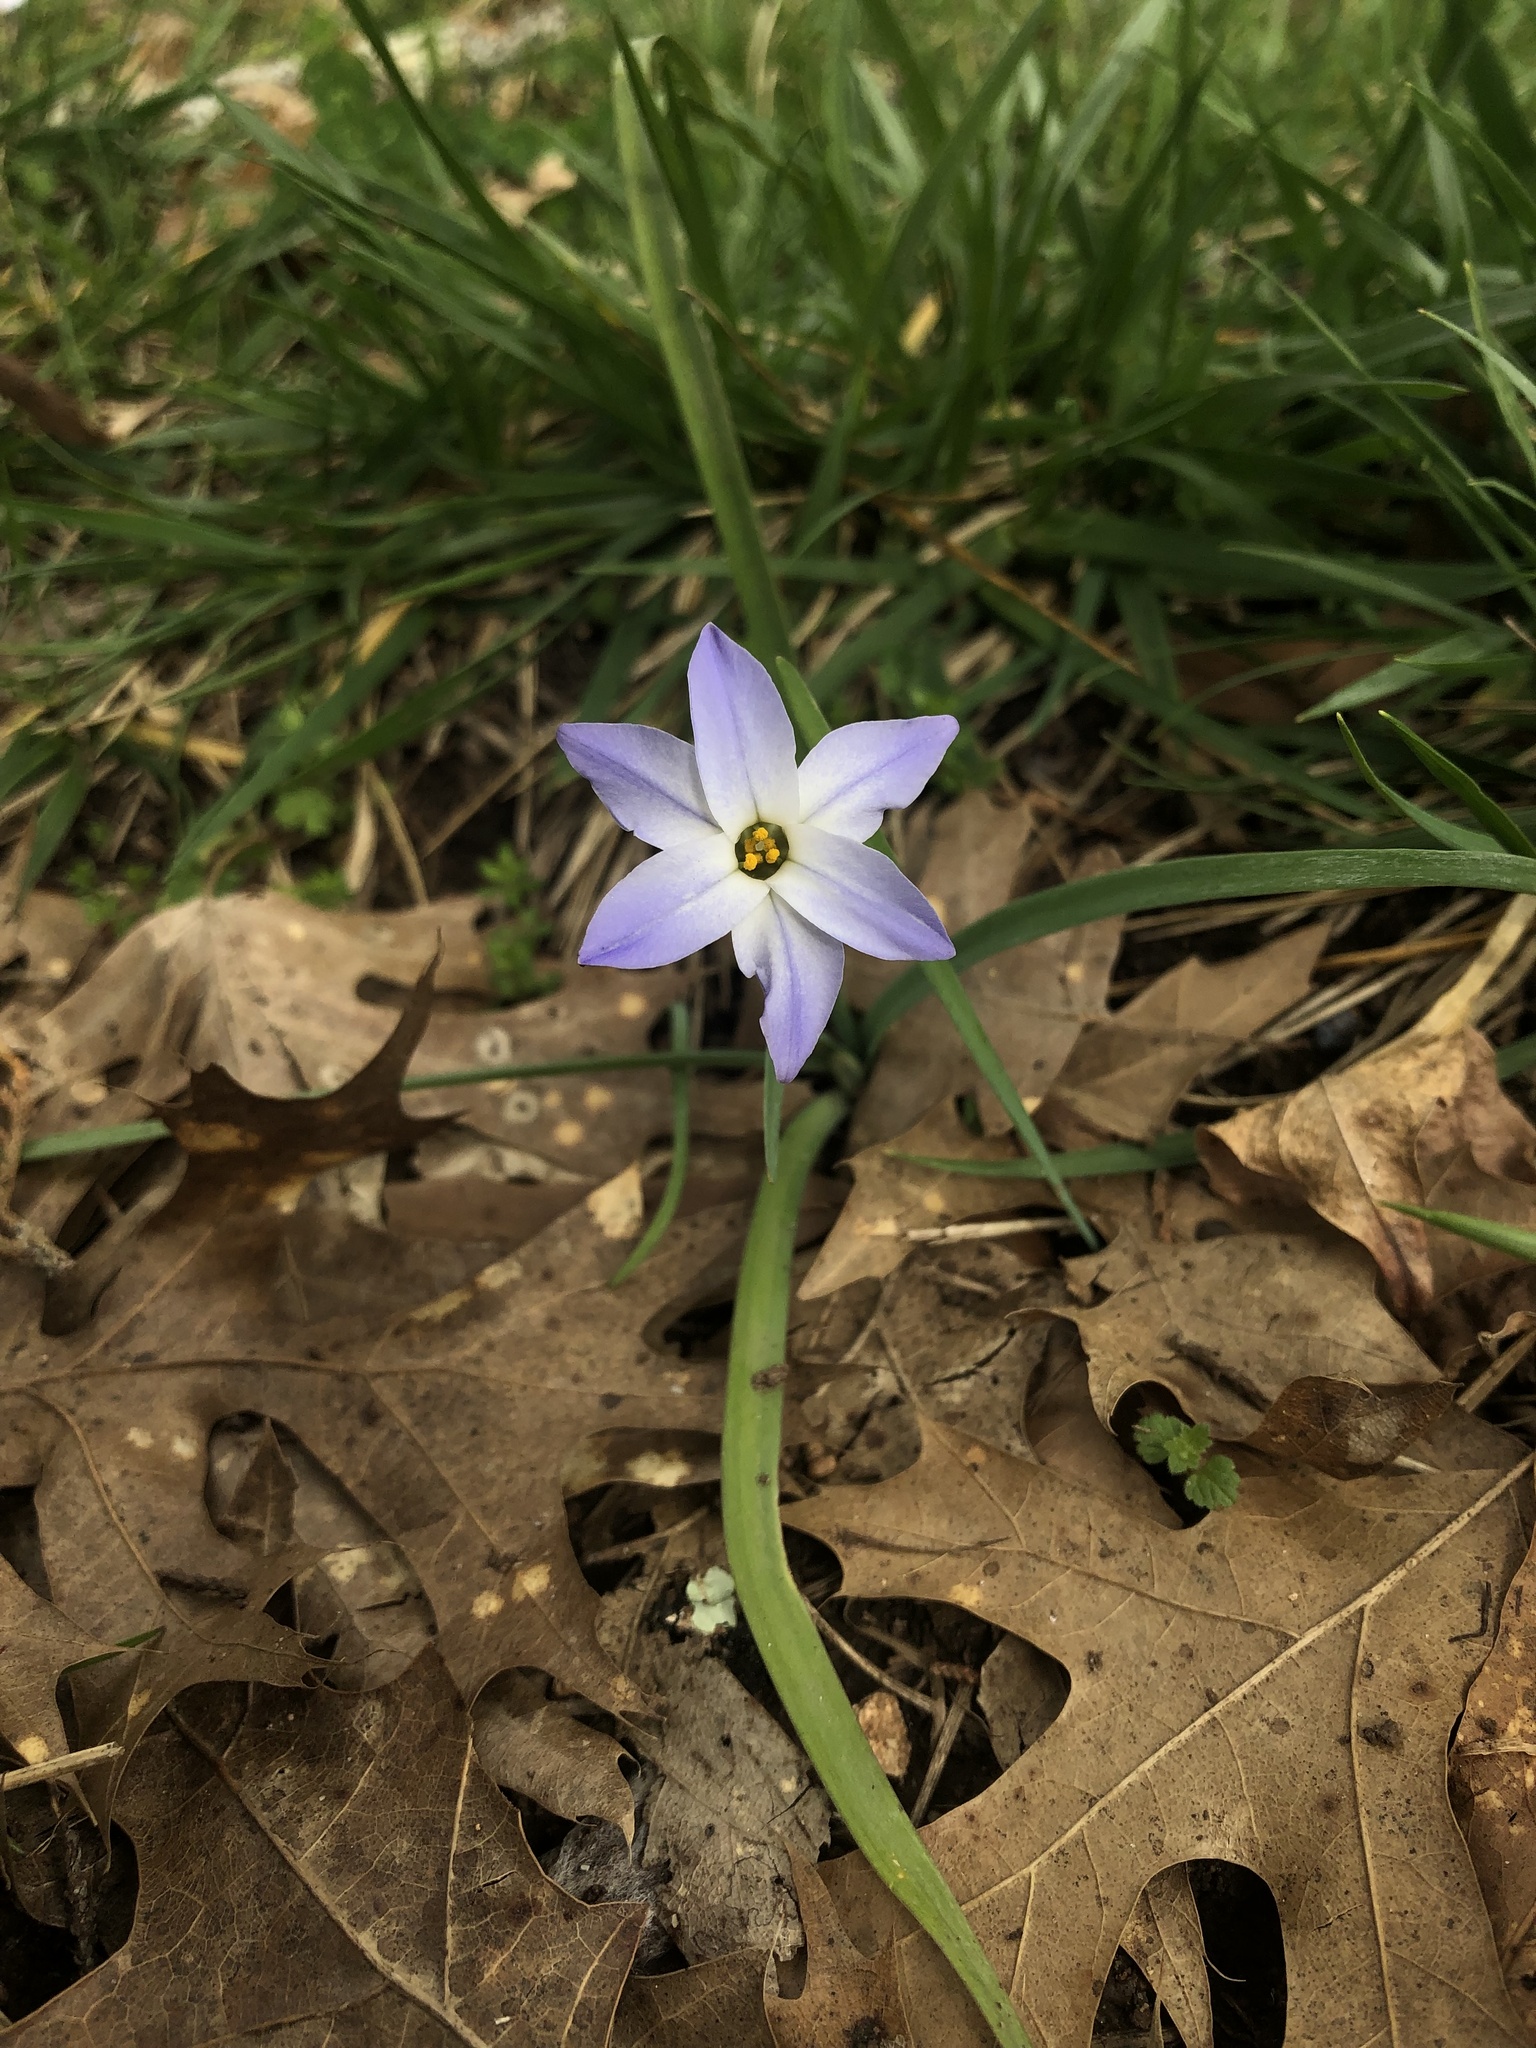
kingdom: Plantae
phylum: Tracheophyta
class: Liliopsida
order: Asparagales
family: Amaryllidaceae
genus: Ipheion
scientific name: Ipheion uniflorum
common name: Spring starflower
